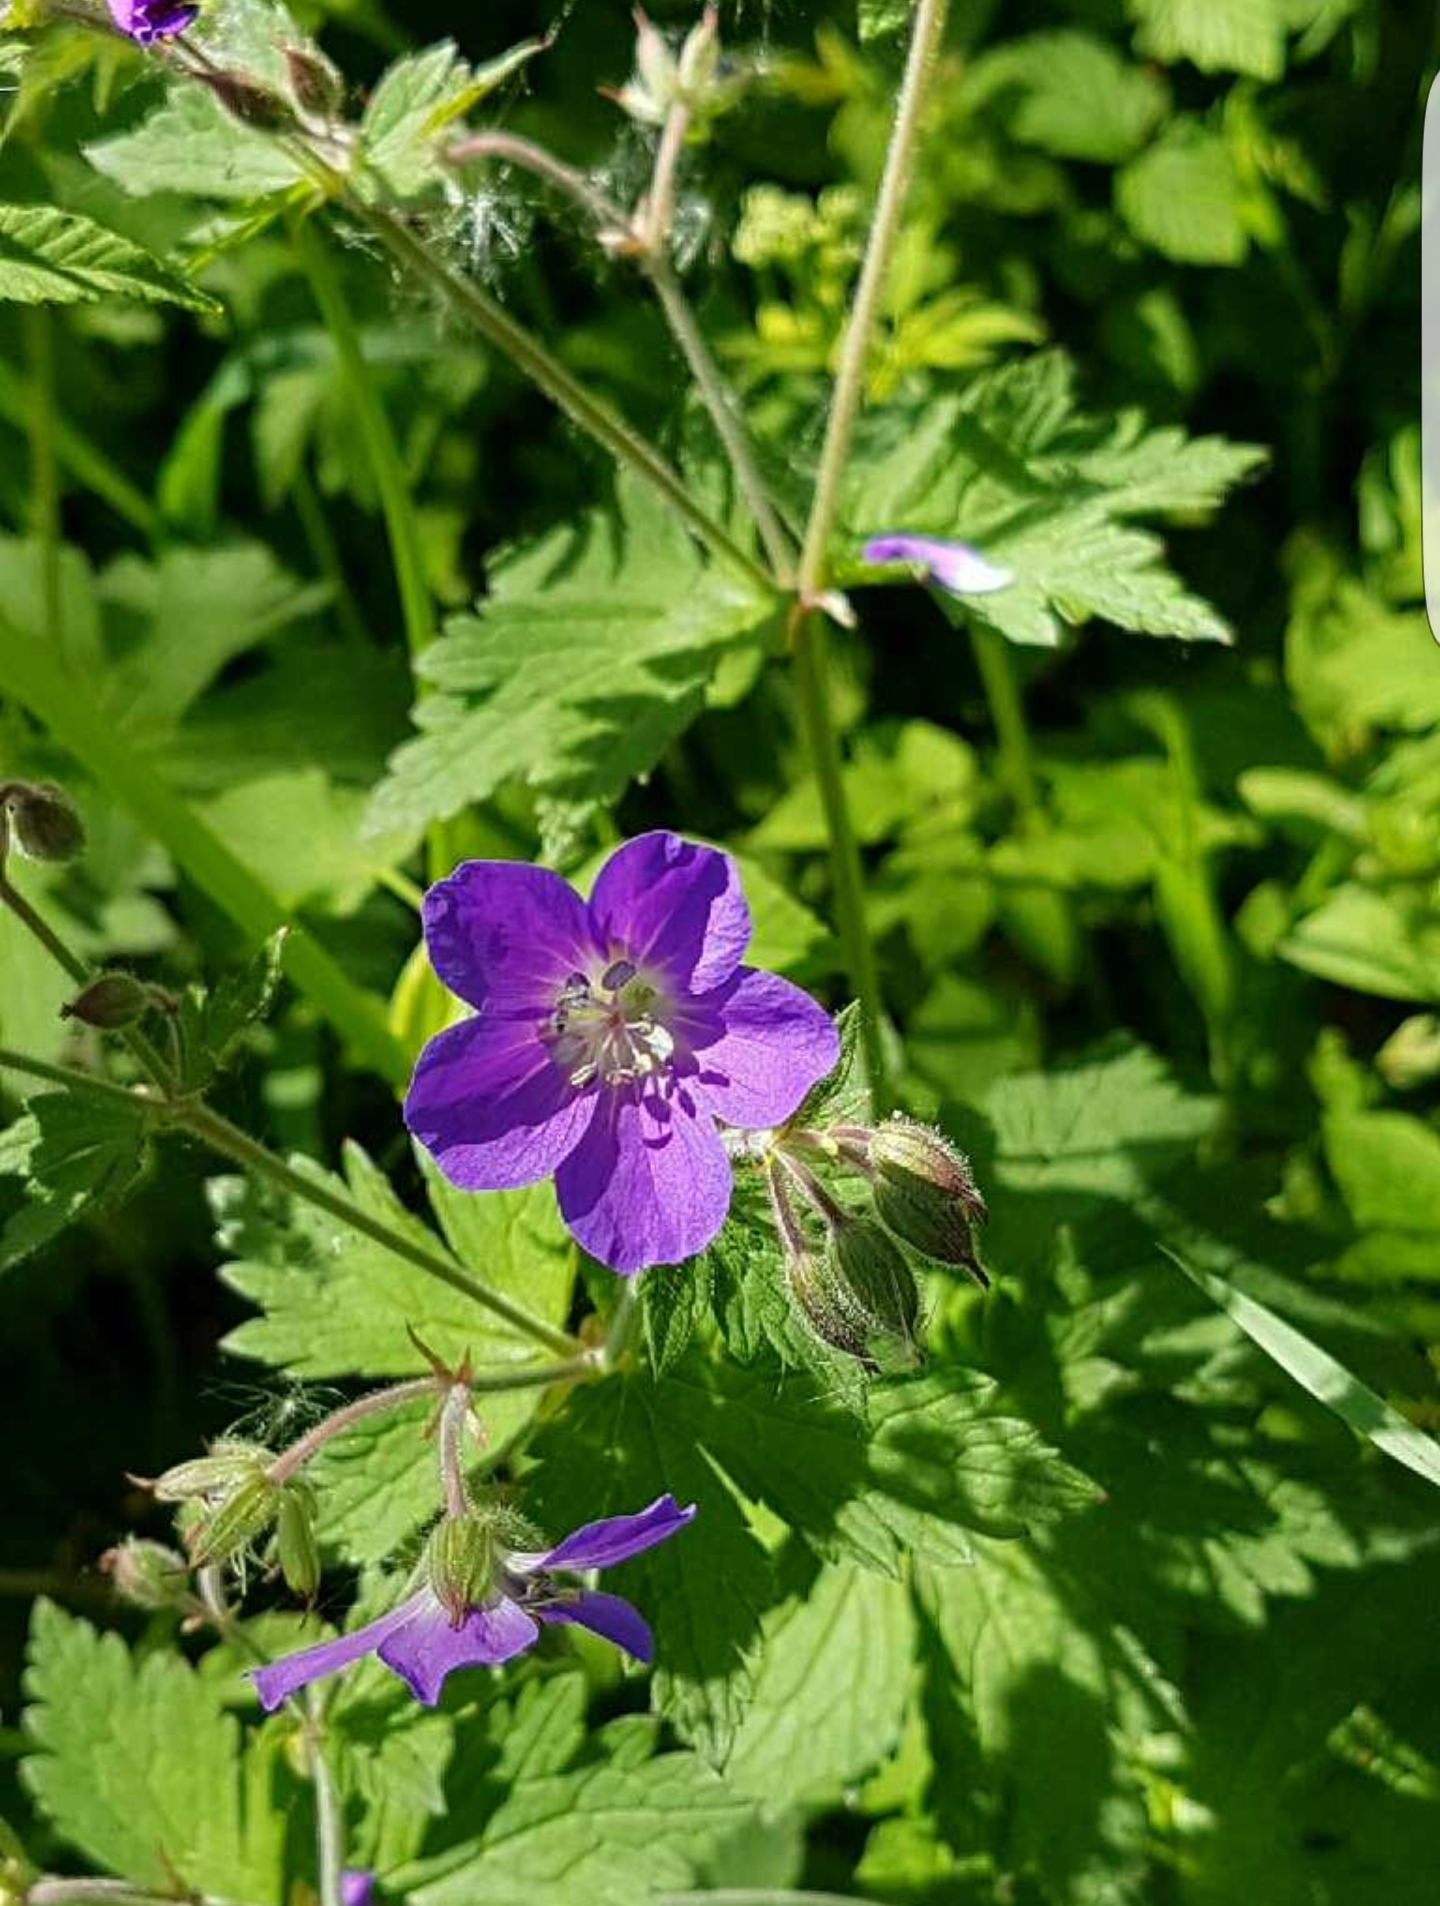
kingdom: Plantae
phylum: Tracheophyta
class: Magnoliopsida
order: Geraniales
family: Geraniaceae
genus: Geranium
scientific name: Geranium sylvaticum
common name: Wood crane's-bill
